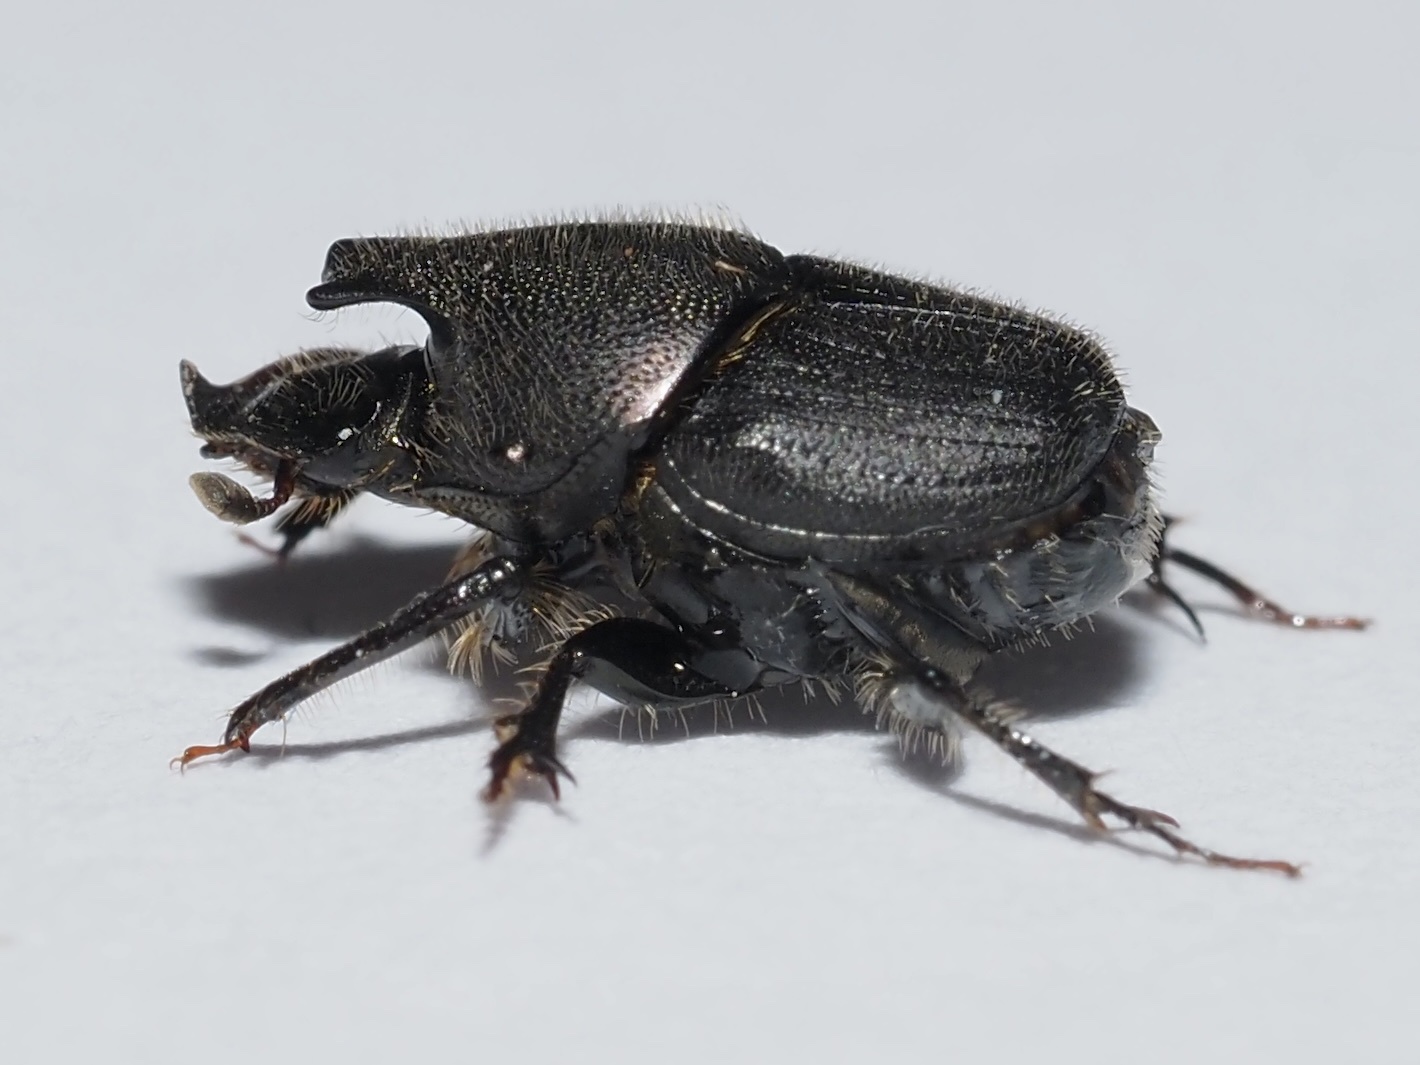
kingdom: Animalia
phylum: Arthropoda
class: Insecta
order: Coleoptera
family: Scarabaeidae
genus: Onthophagus
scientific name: Onthophagus hecate
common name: Scooped scarab
